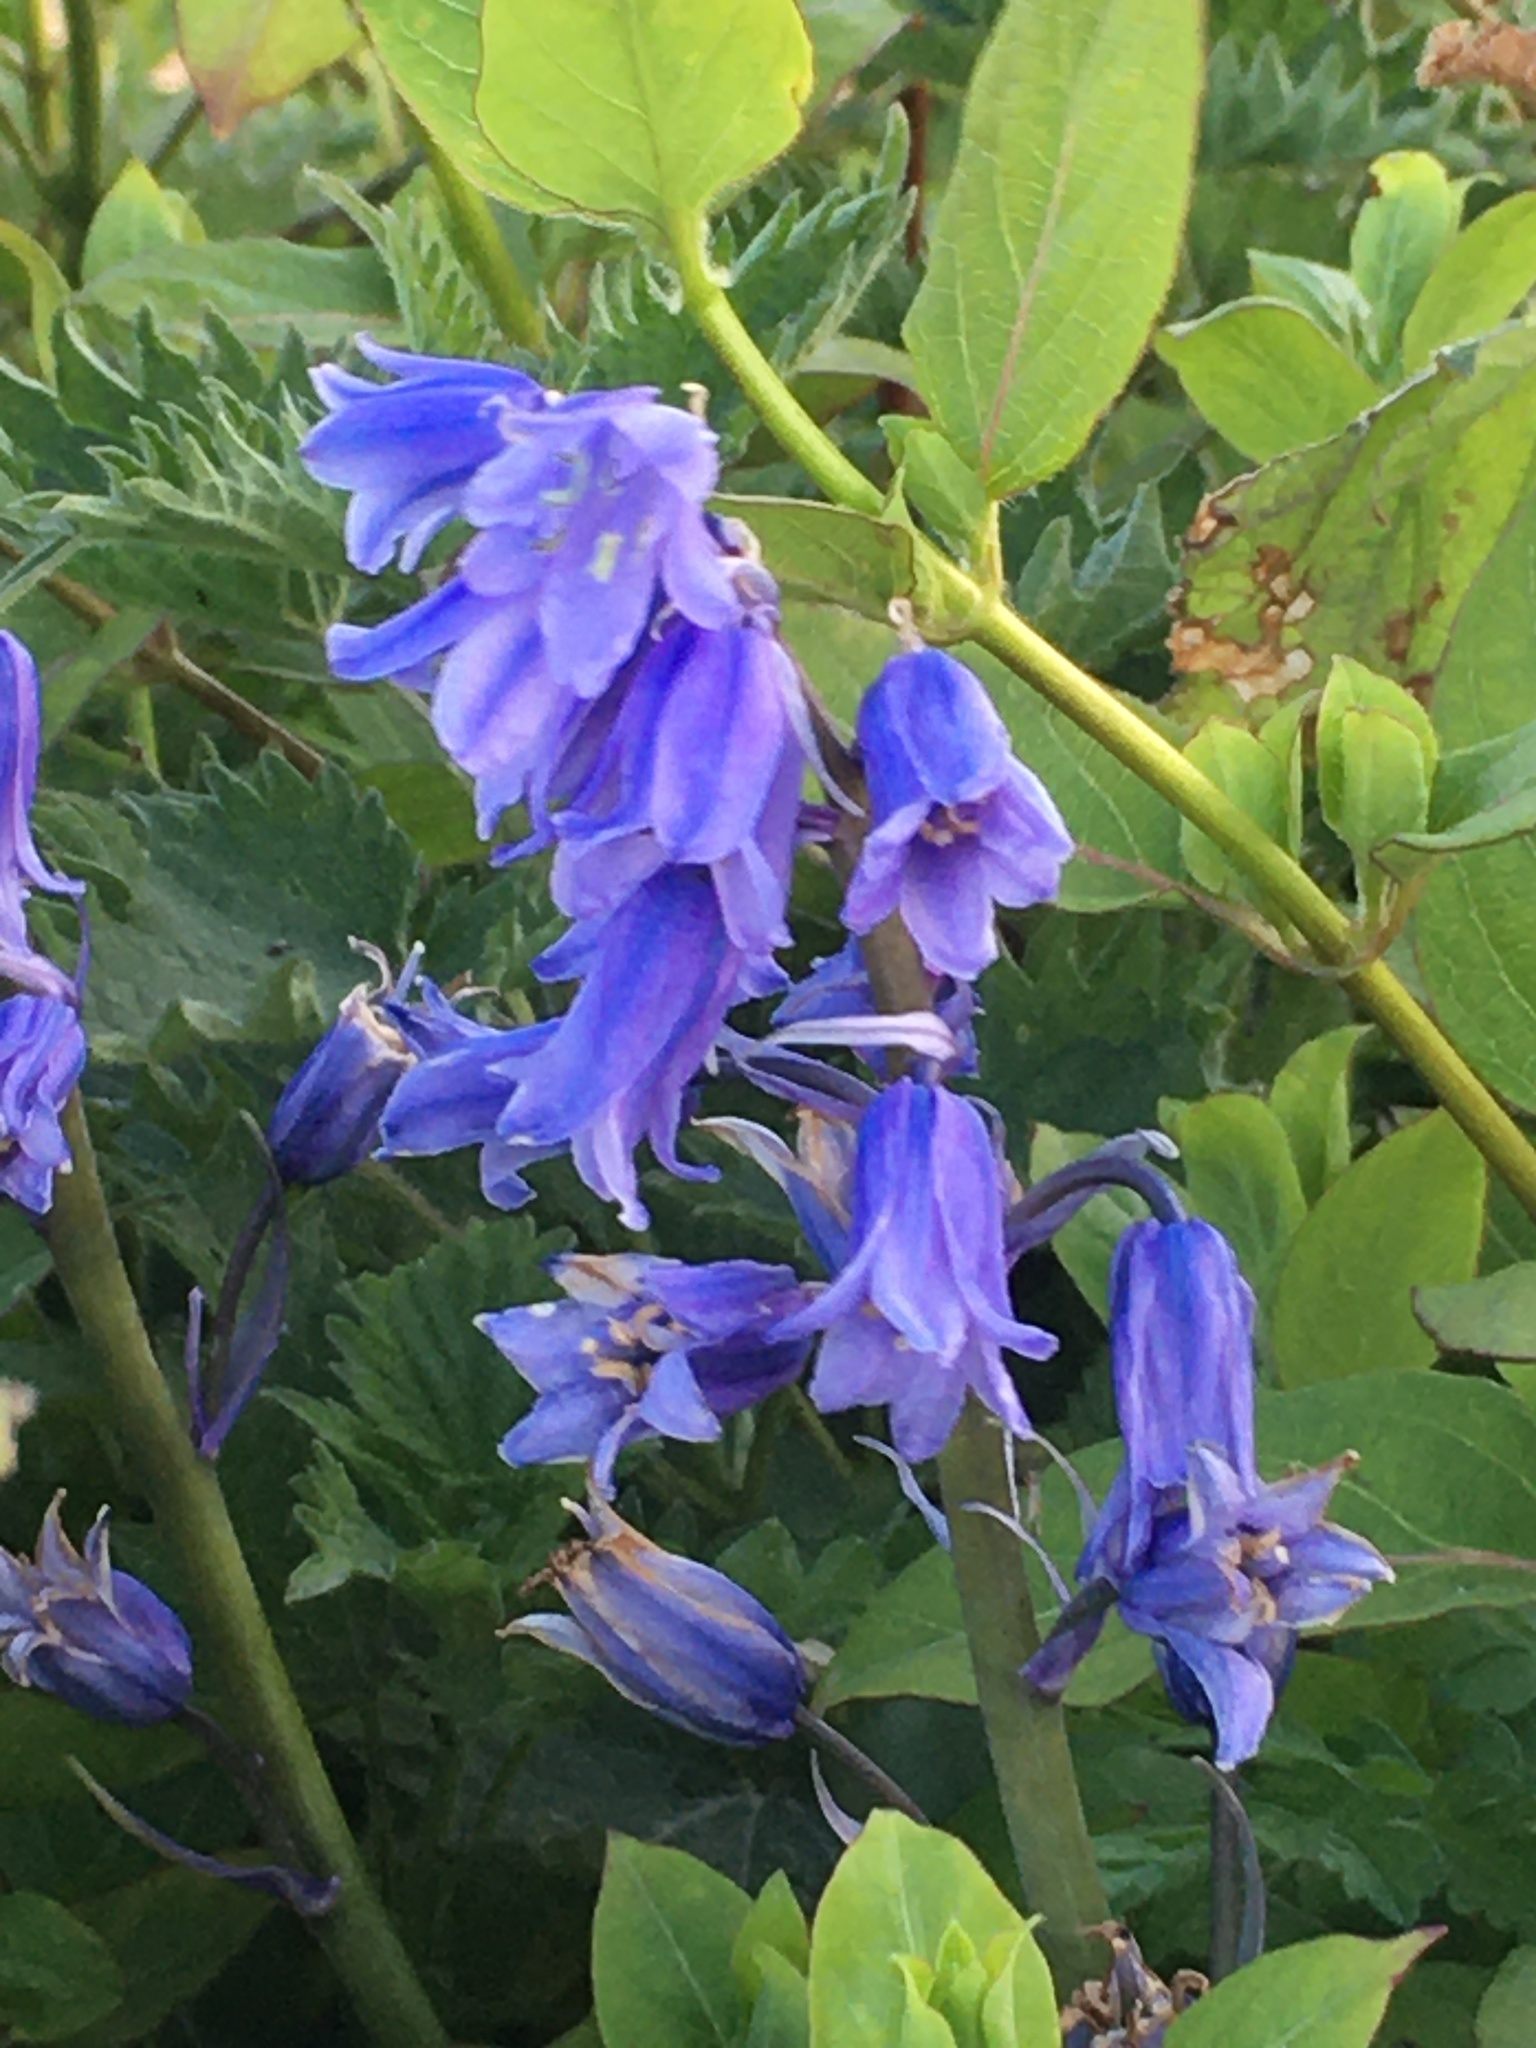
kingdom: Plantae
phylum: Tracheophyta
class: Liliopsida
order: Asparagales
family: Asparagaceae
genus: Hyacinthoides
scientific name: Hyacinthoides hispanica
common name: Spanish bluebell
